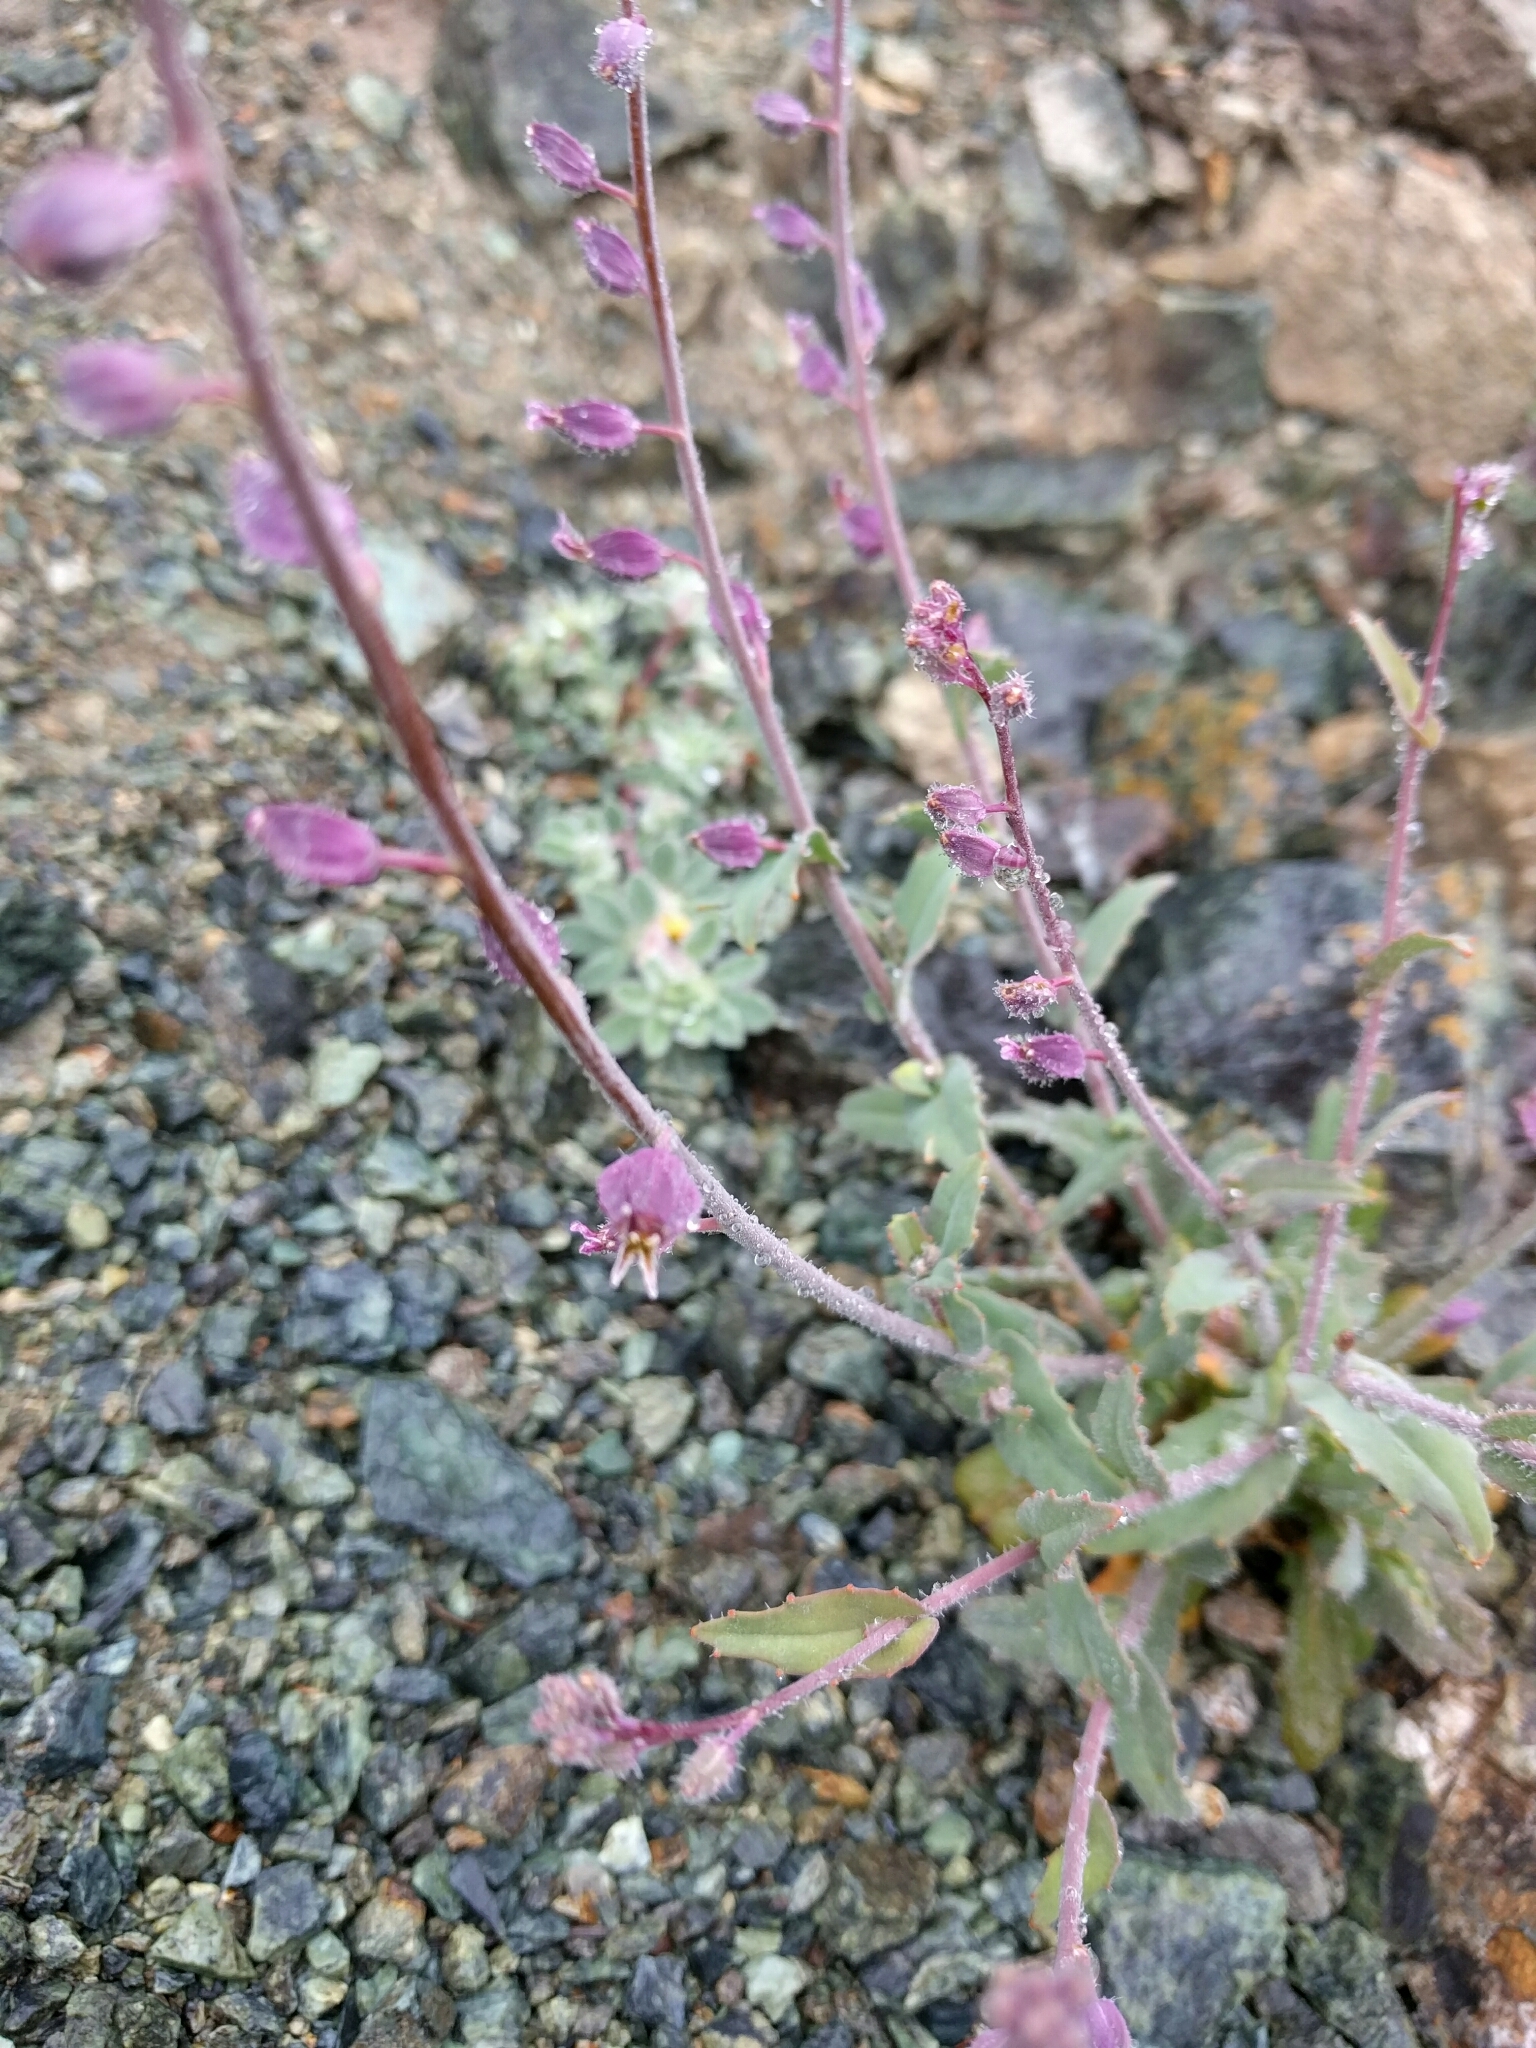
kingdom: Plantae
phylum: Tracheophyta
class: Magnoliopsida
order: Brassicales
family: Brassicaceae
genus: Streptanthus
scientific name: Streptanthus glandulosus
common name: Jewel-flower
